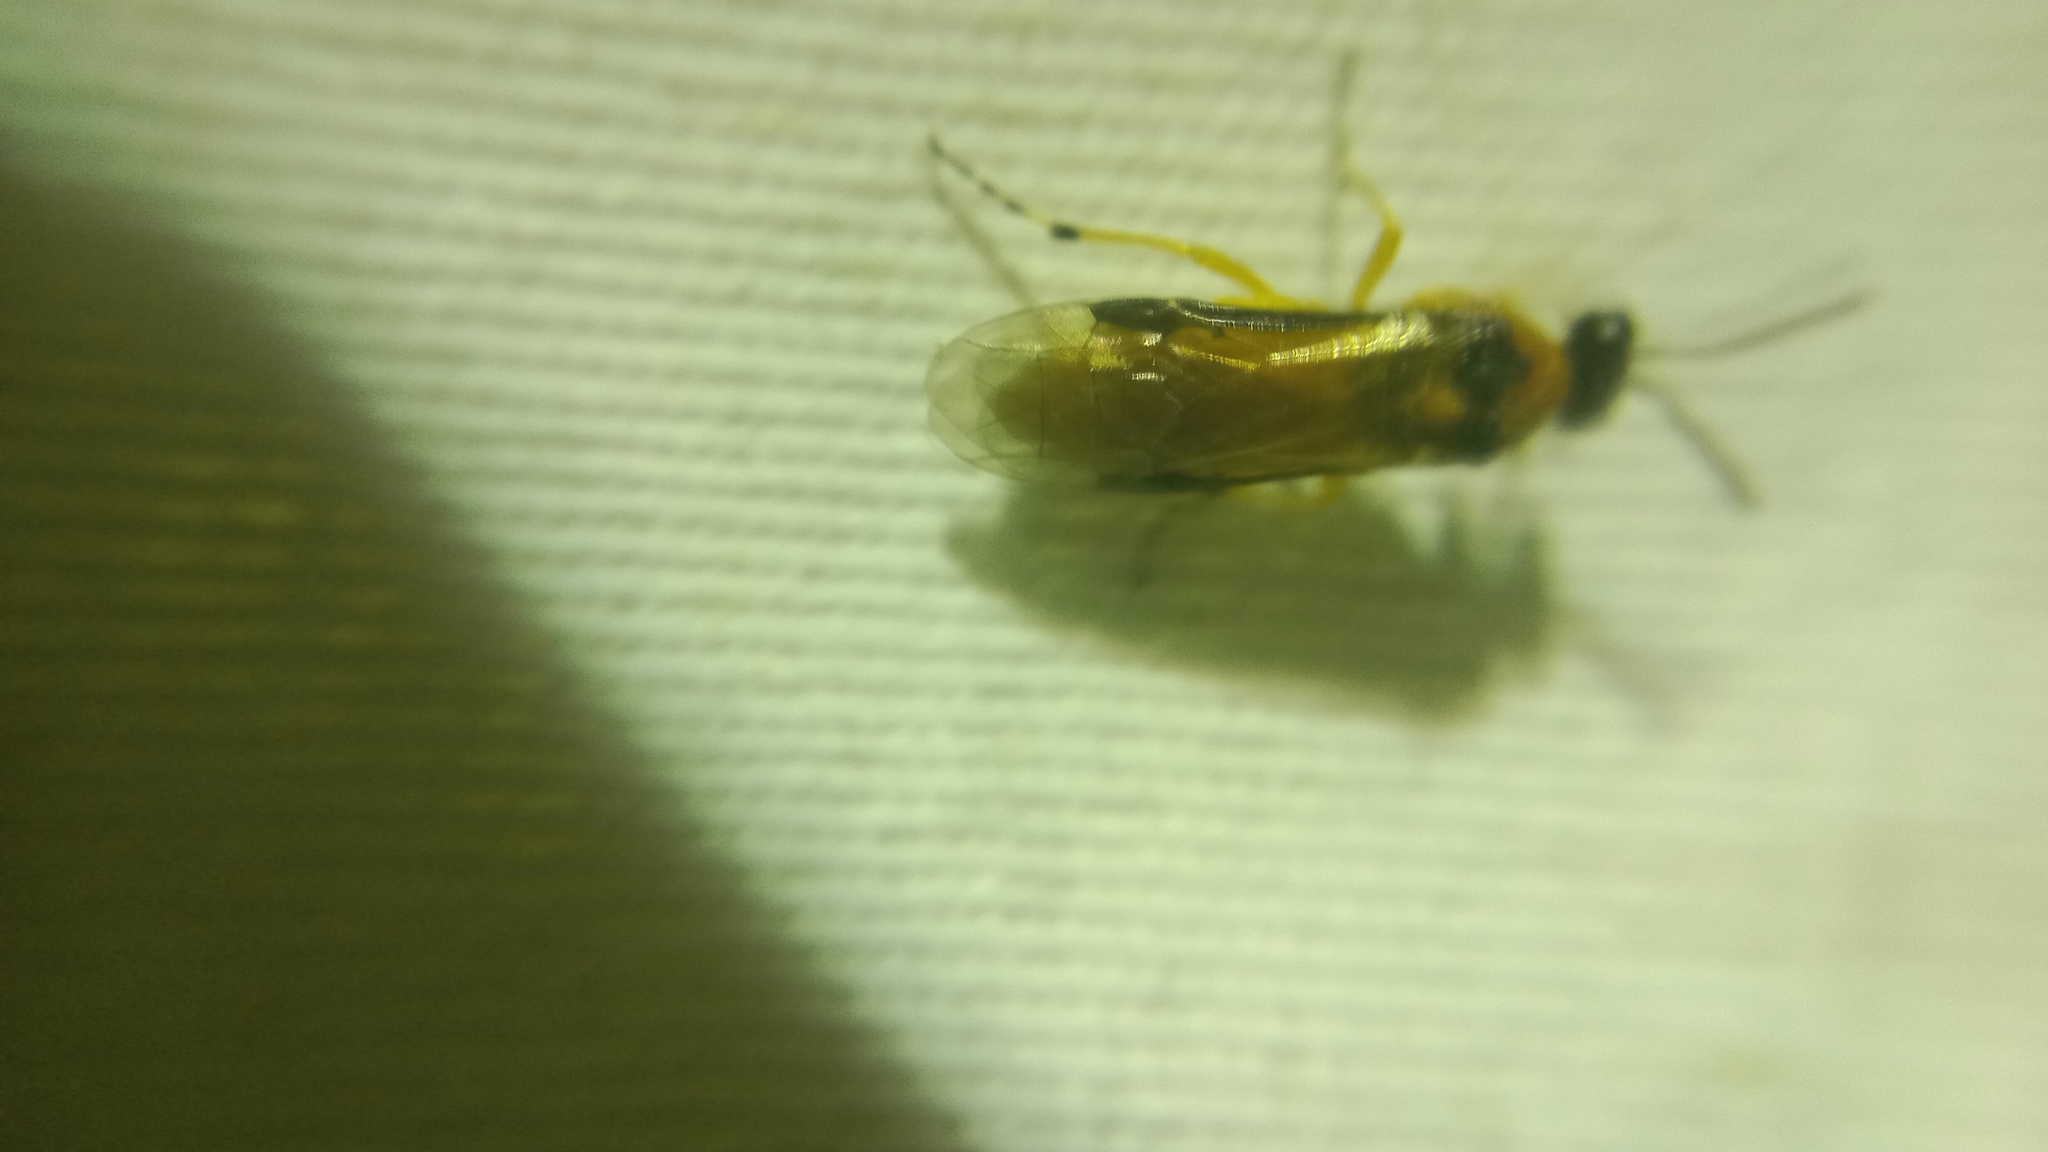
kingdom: Animalia
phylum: Arthropoda
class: Insecta
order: Hymenoptera
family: Tenthredinidae
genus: Athalia
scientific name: Athalia rosae
